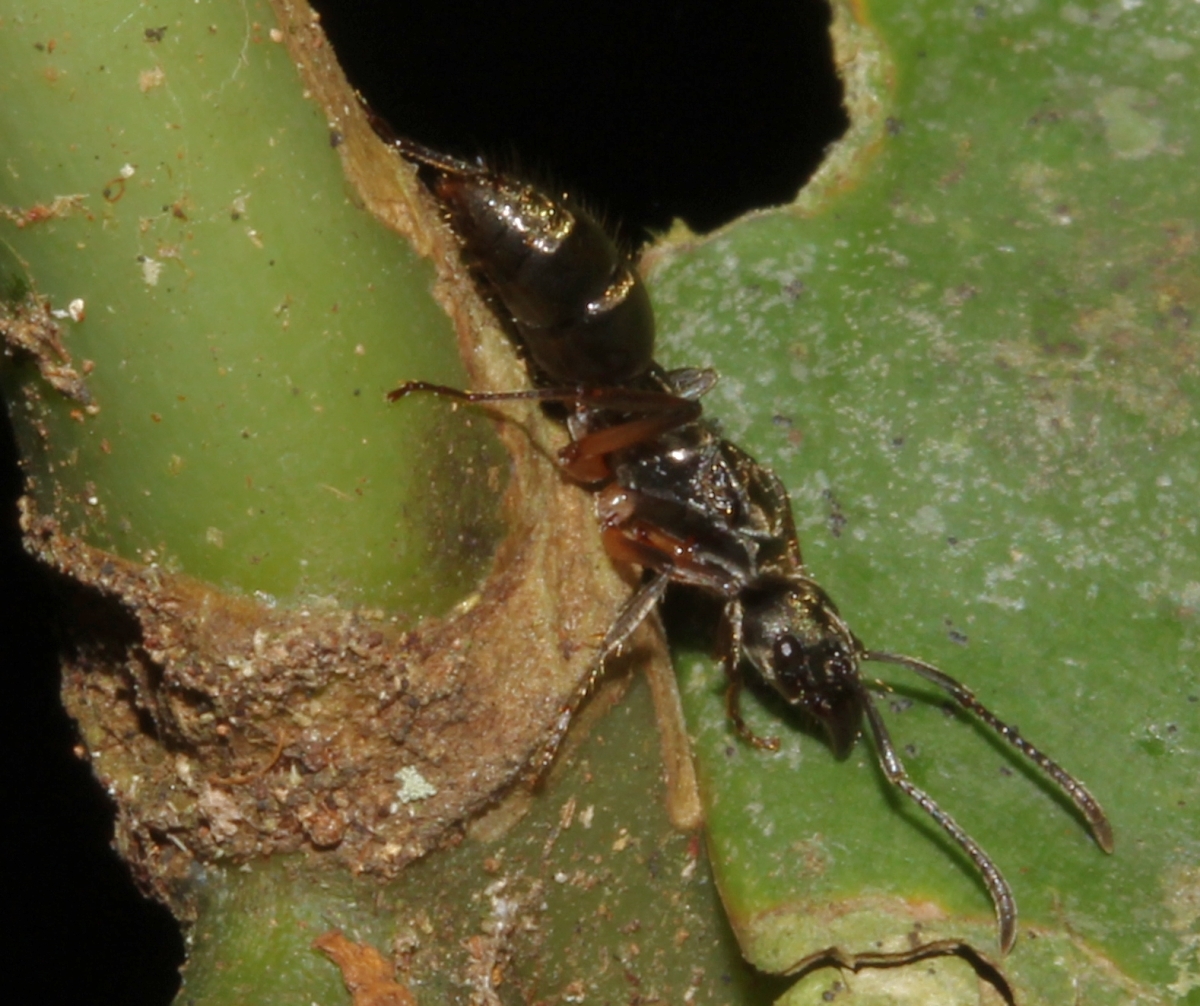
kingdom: Animalia
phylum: Arthropoda
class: Insecta
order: Hymenoptera
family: Formicidae
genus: Neoponera
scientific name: Neoponera
